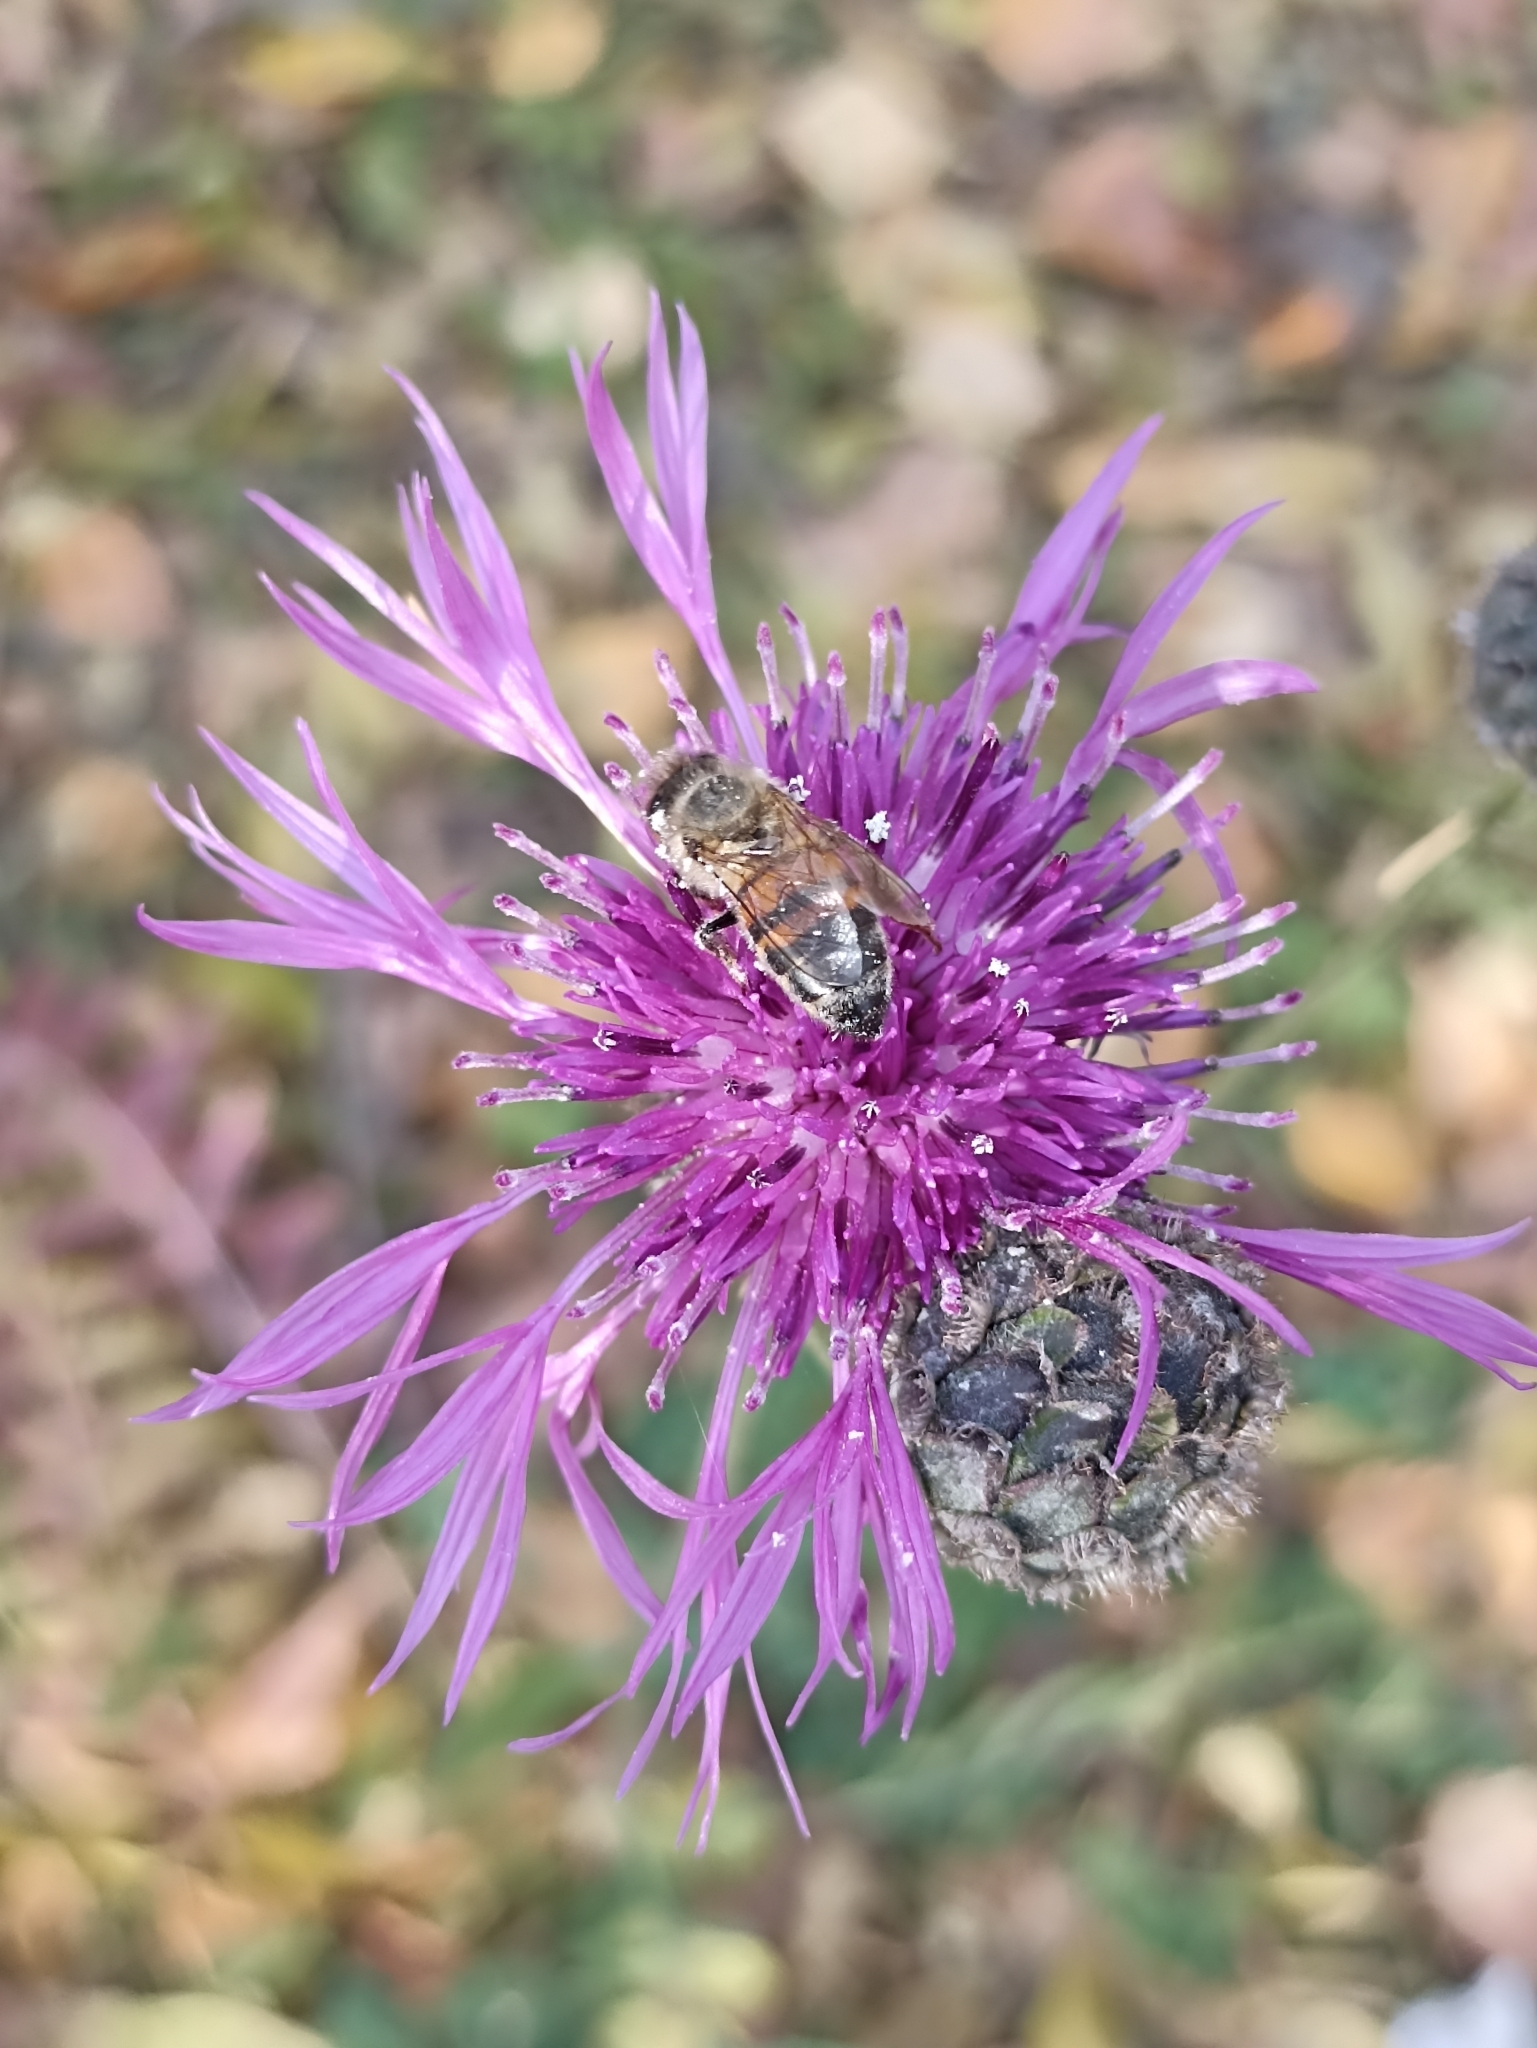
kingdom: Plantae
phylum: Tracheophyta
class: Magnoliopsida
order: Asterales
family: Asteraceae
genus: Centaurea
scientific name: Centaurea scabiosa
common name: Greater knapweed
